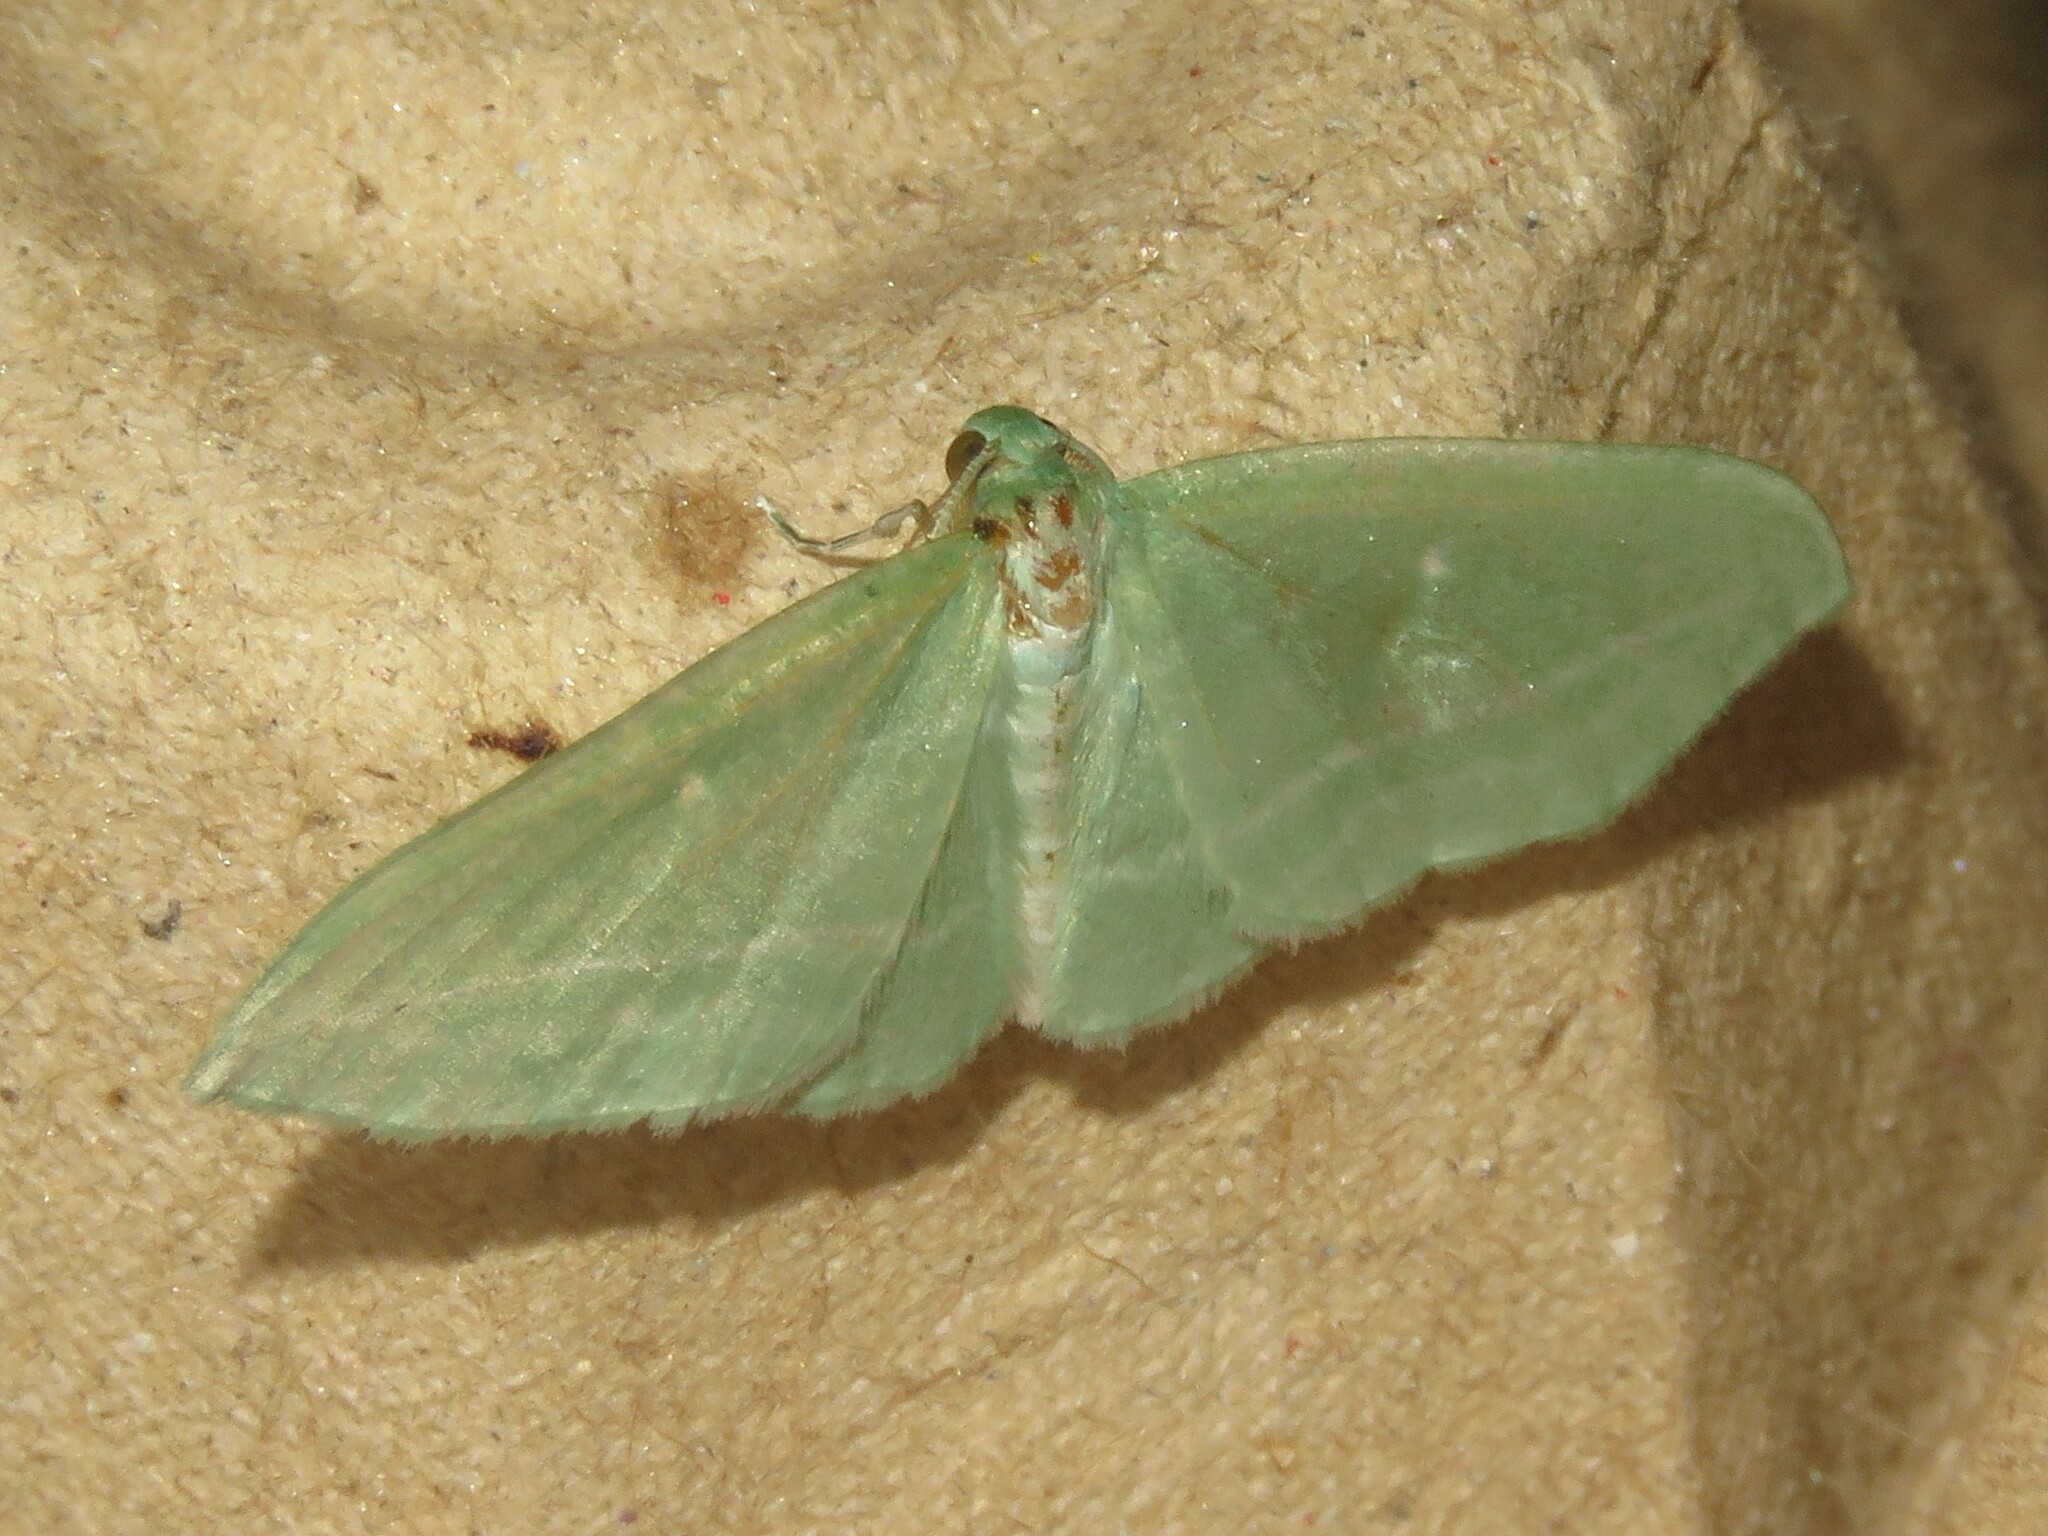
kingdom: Animalia
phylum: Arthropoda
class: Insecta
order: Lepidoptera
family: Geometridae
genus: Dyspteris
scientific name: Dyspteris abortivaria
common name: Bad-wing
